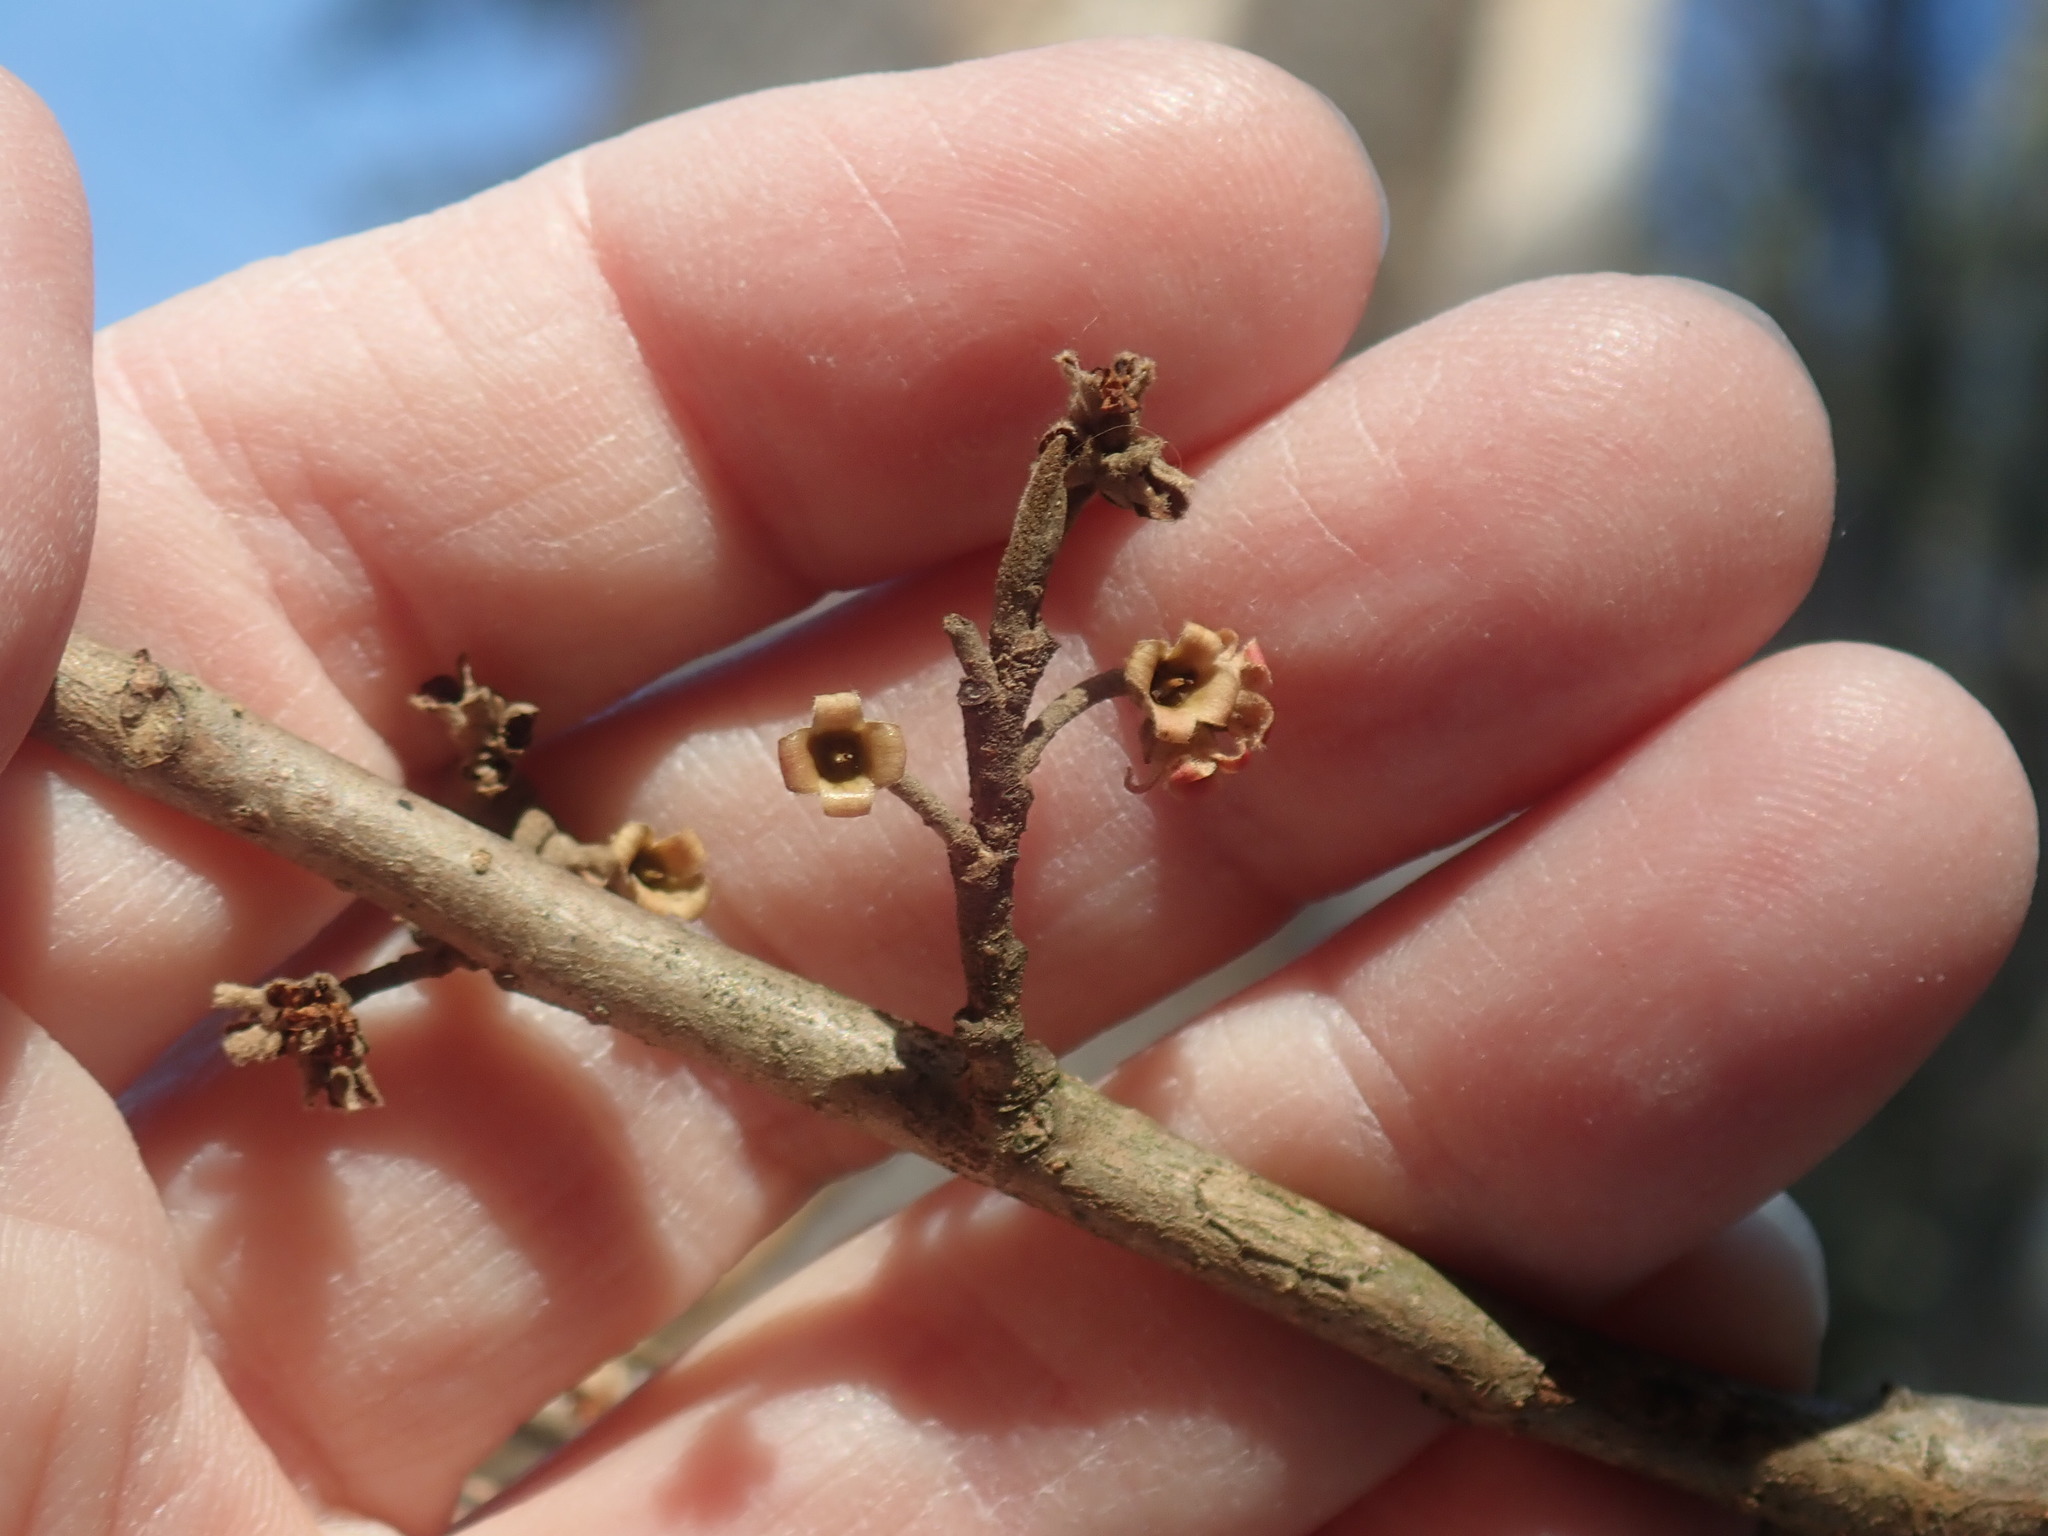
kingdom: Plantae
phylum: Tracheophyta
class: Magnoliopsida
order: Saxifragales
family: Hamamelidaceae
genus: Hamamelis
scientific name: Hamamelis virginiana
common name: Witch-hazel
